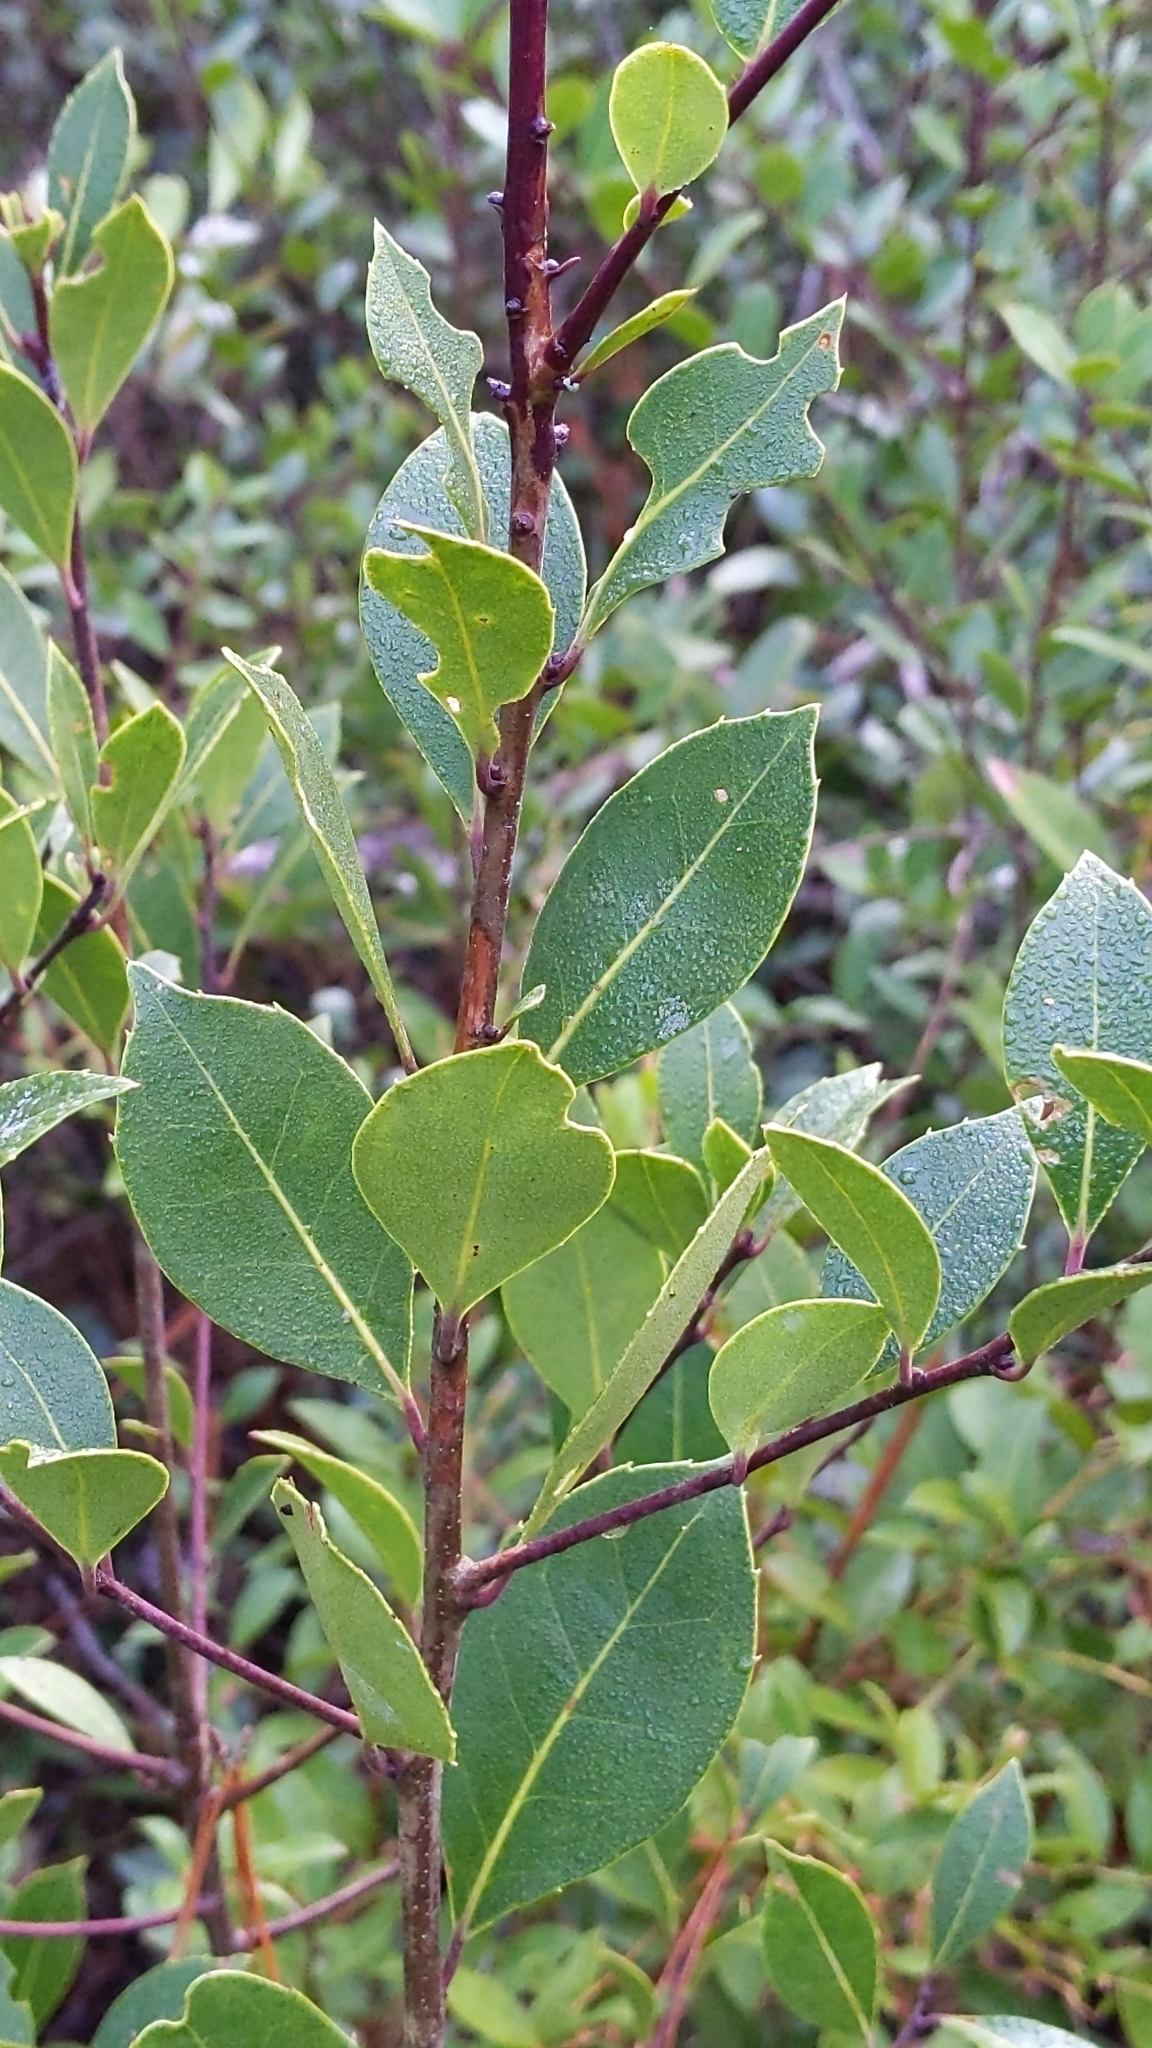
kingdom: Plantae
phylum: Tracheophyta
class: Magnoliopsida
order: Aquifoliales
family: Aquifoliaceae
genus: Ilex
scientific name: Ilex coriacea
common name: Sweet gallberry
